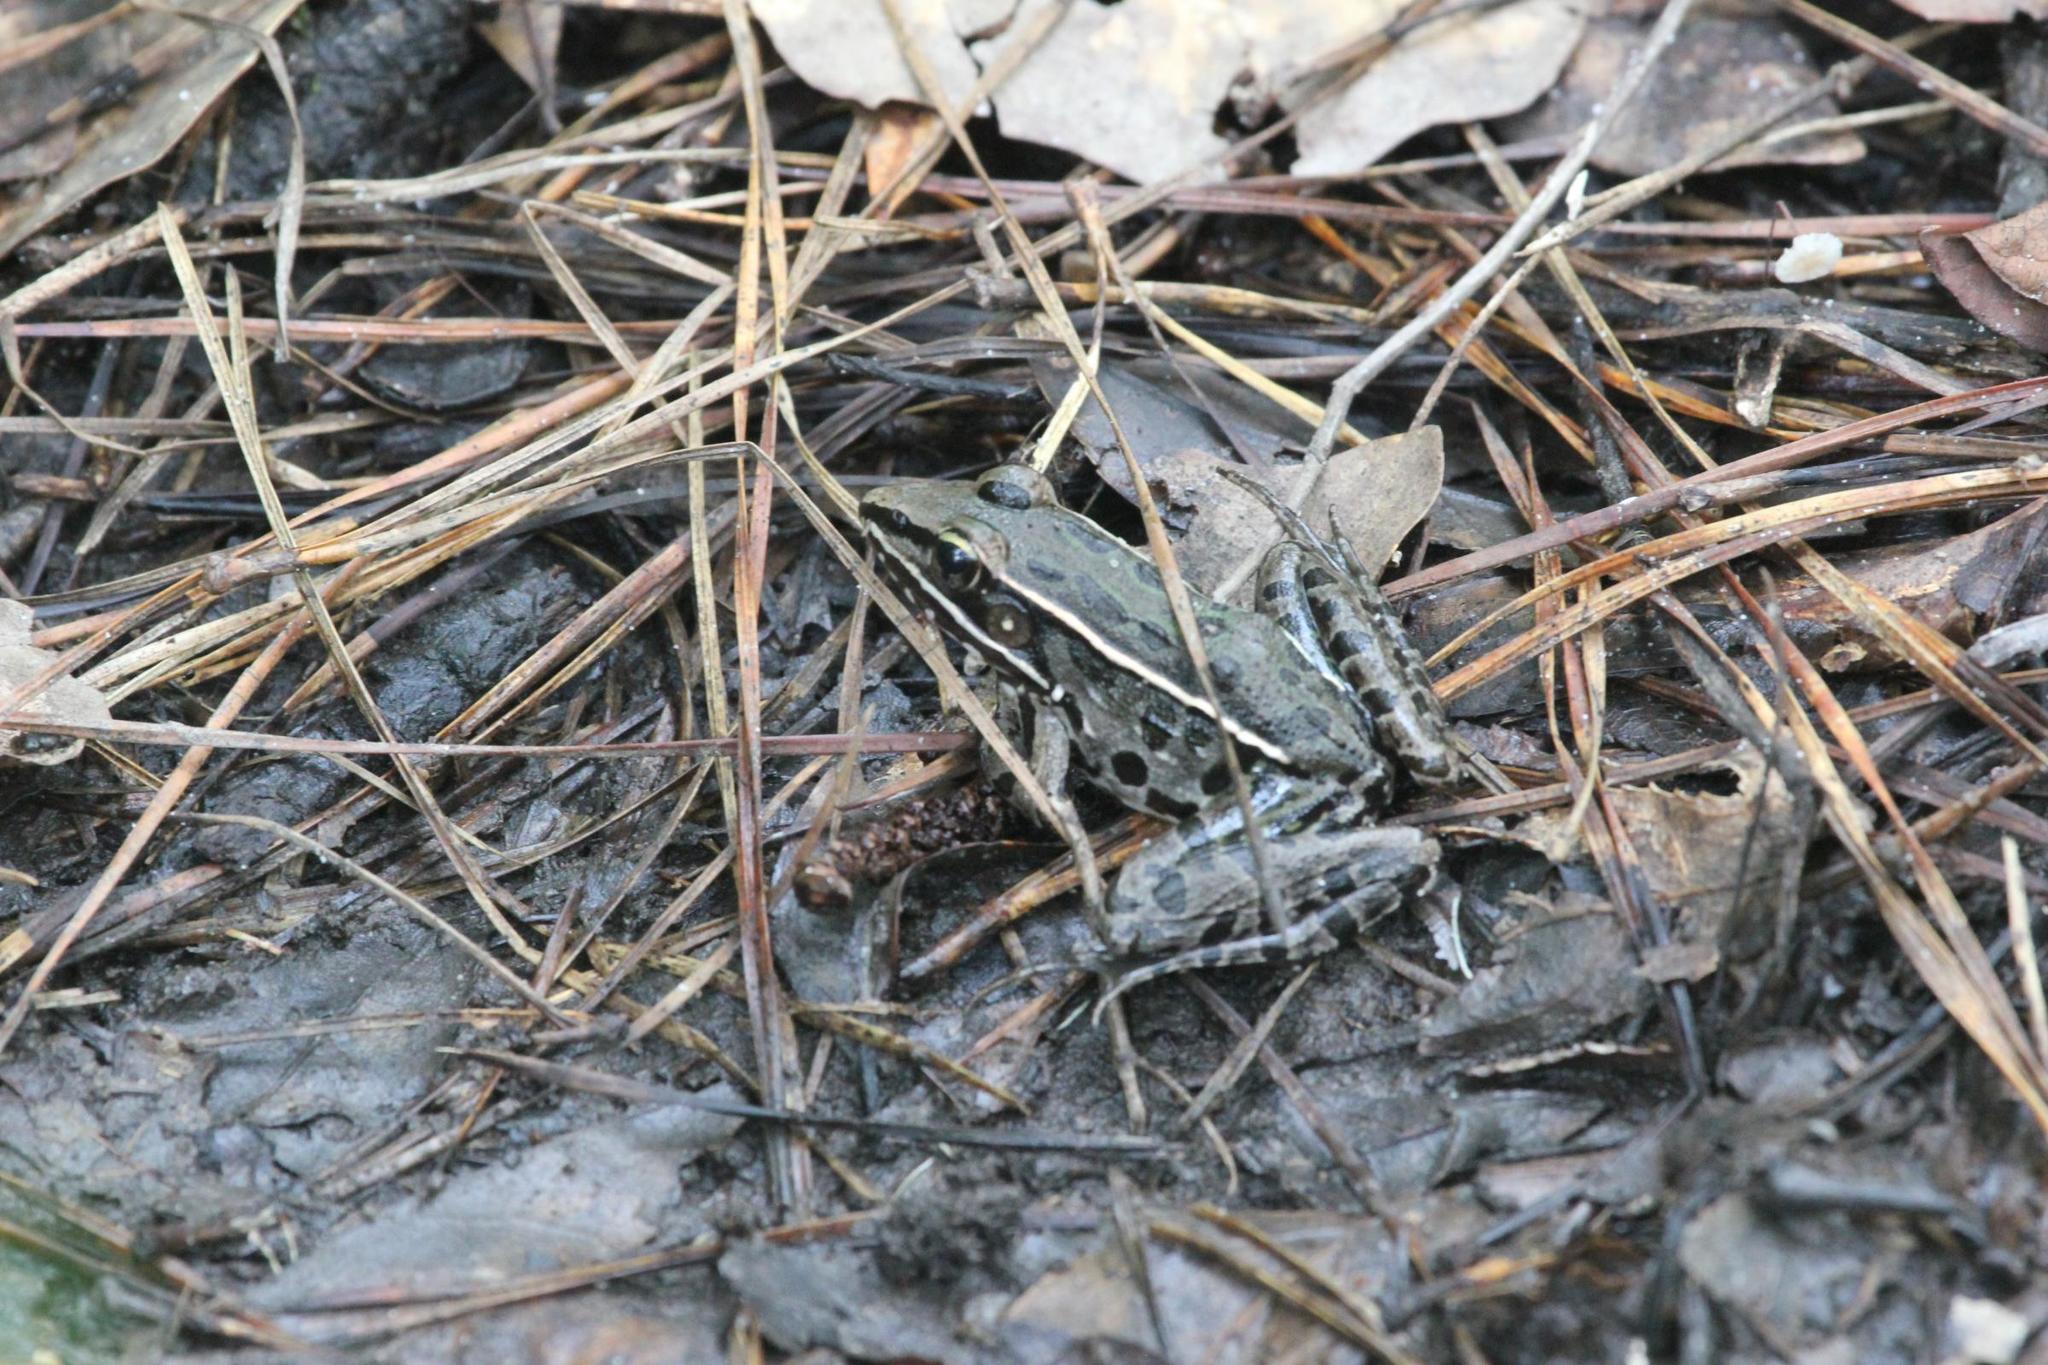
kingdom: Animalia
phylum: Chordata
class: Amphibia
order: Anura
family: Ranidae
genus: Lithobates
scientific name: Lithobates sphenocephalus
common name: Southern leopard frog
